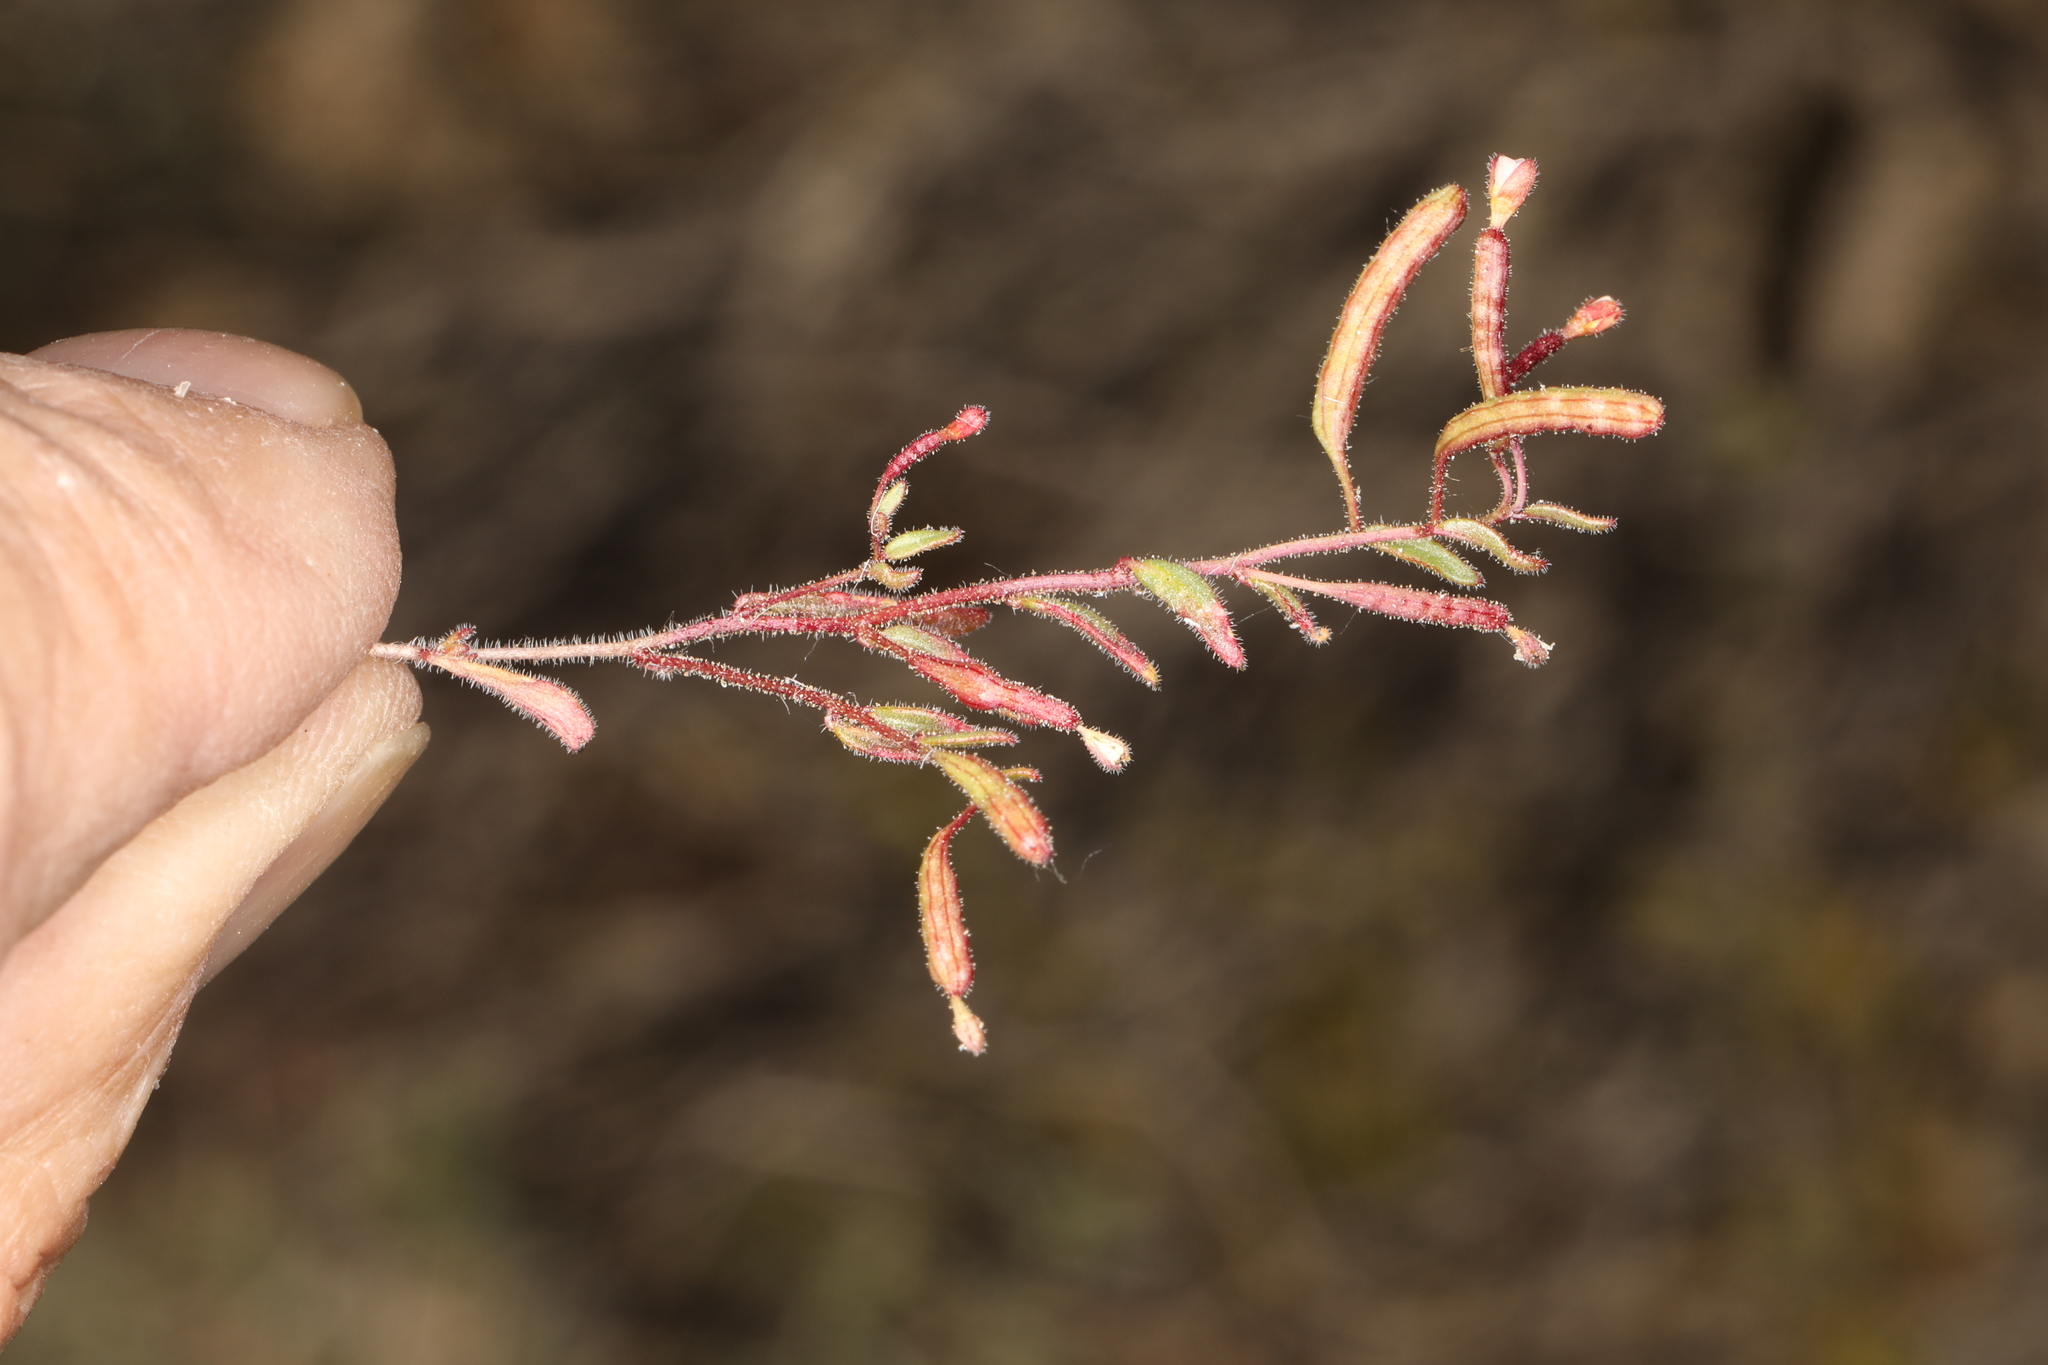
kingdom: Plantae
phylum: Tracheophyta
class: Magnoliopsida
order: Myrtales
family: Onagraceae
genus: Chylismiella
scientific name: Chylismiella pterosperma
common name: Wingfruit suncup
